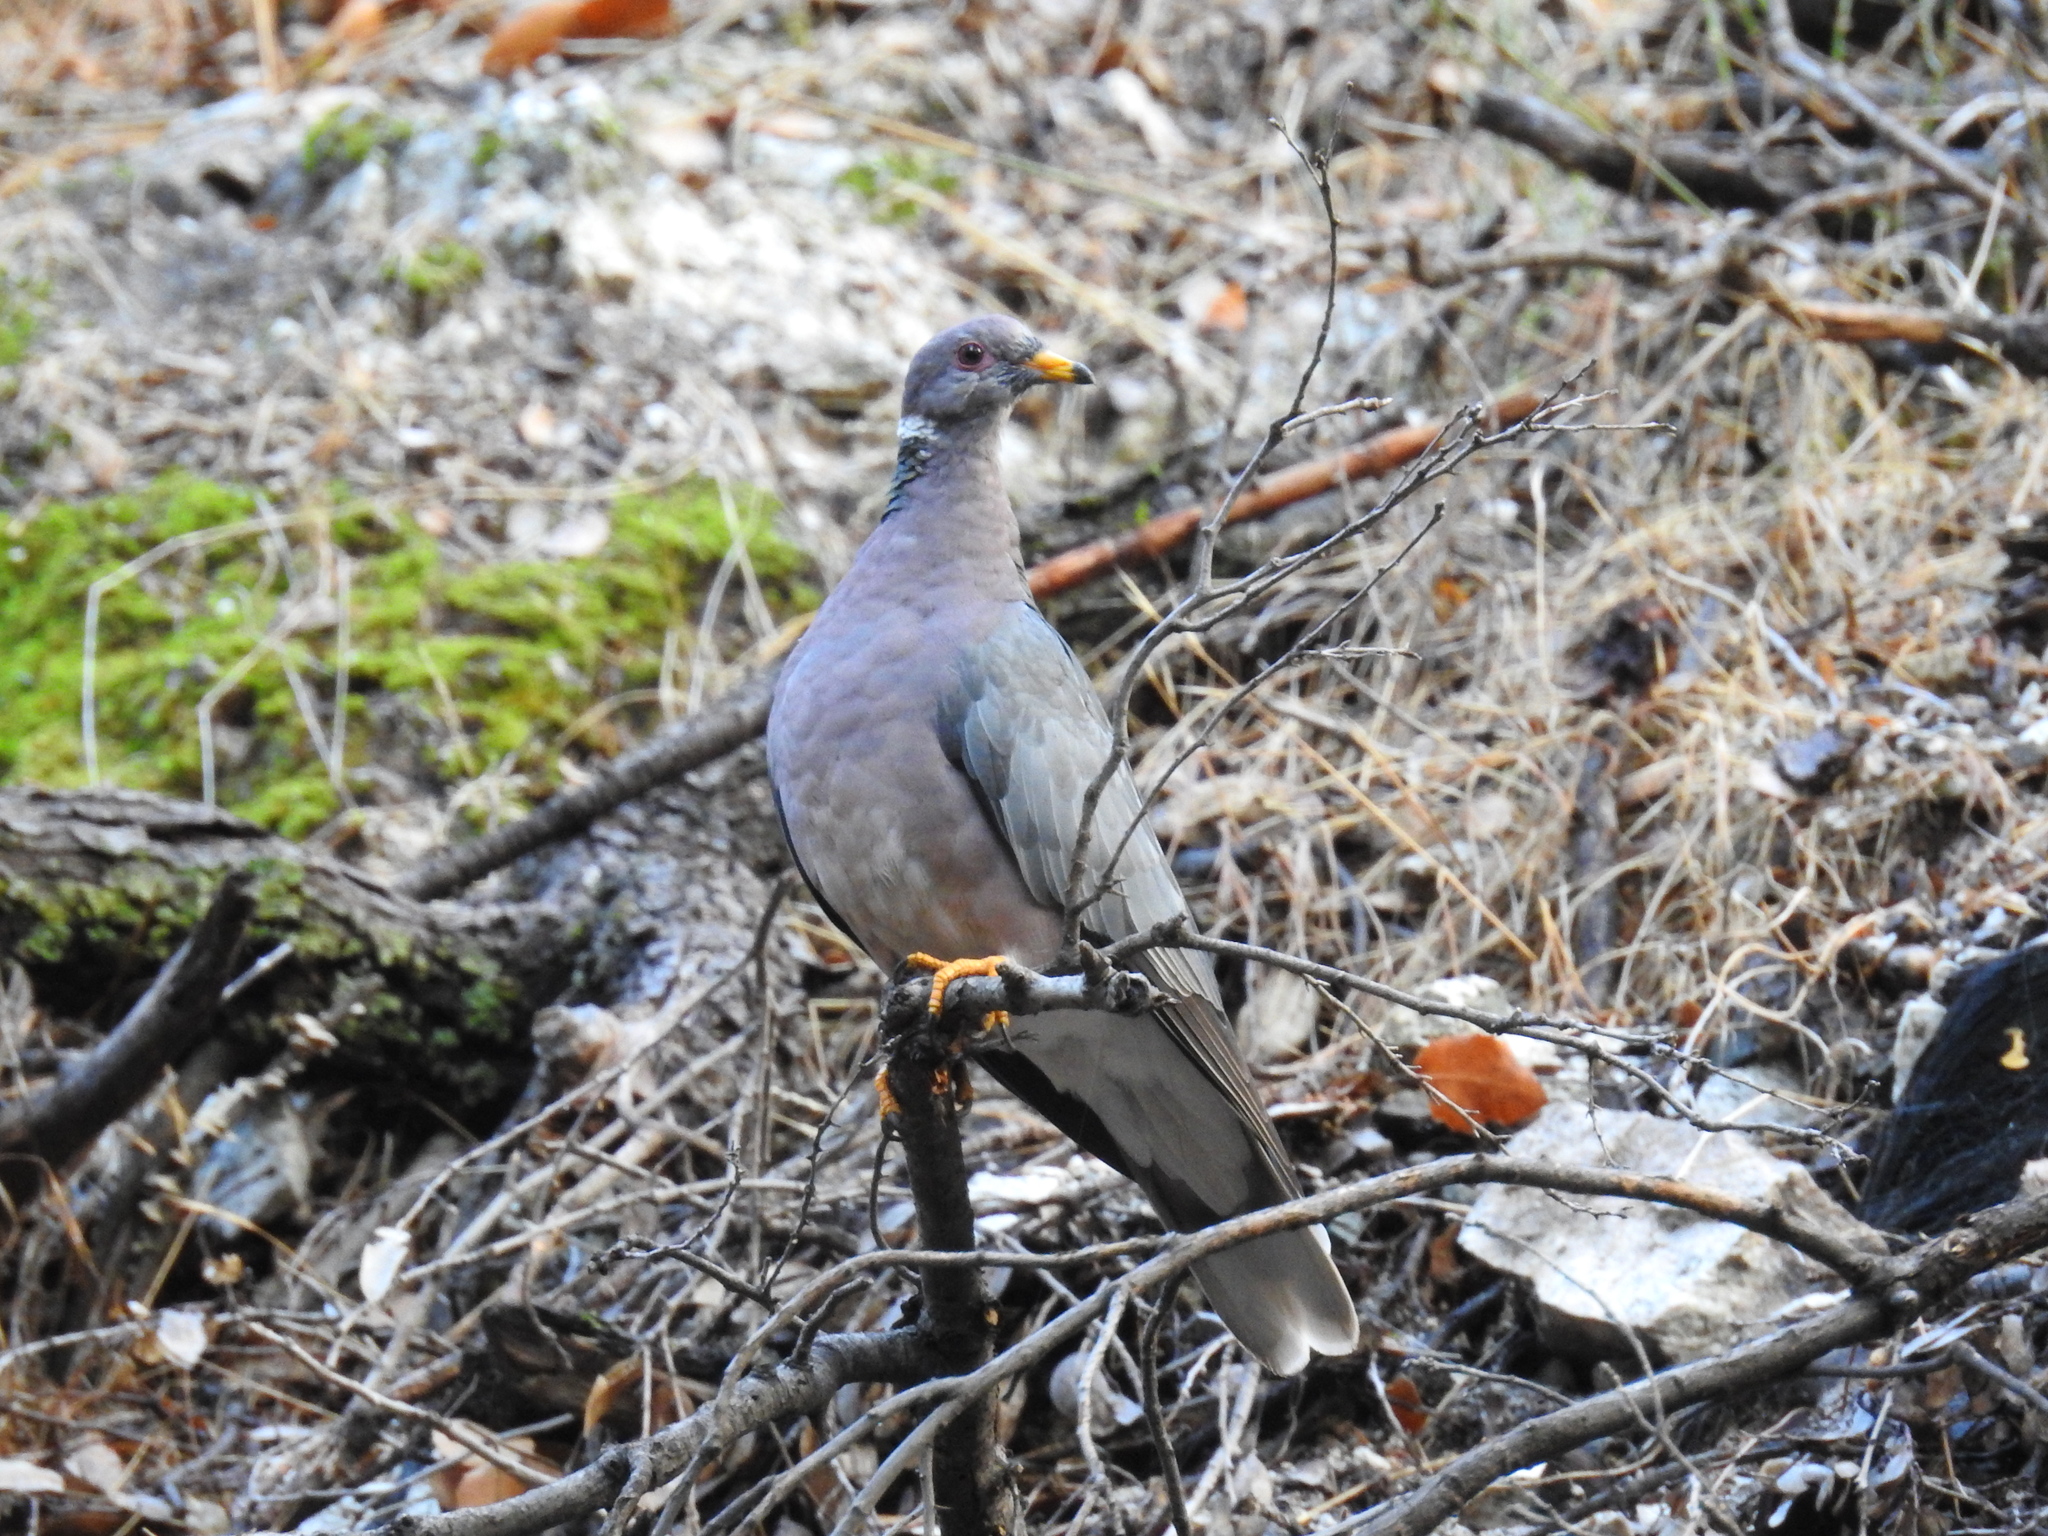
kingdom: Animalia
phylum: Chordata
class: Aves
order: Columbiformes
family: Columbidae
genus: Patagioenas
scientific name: Patagioenas fasciata
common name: Band-tailed pigeon
